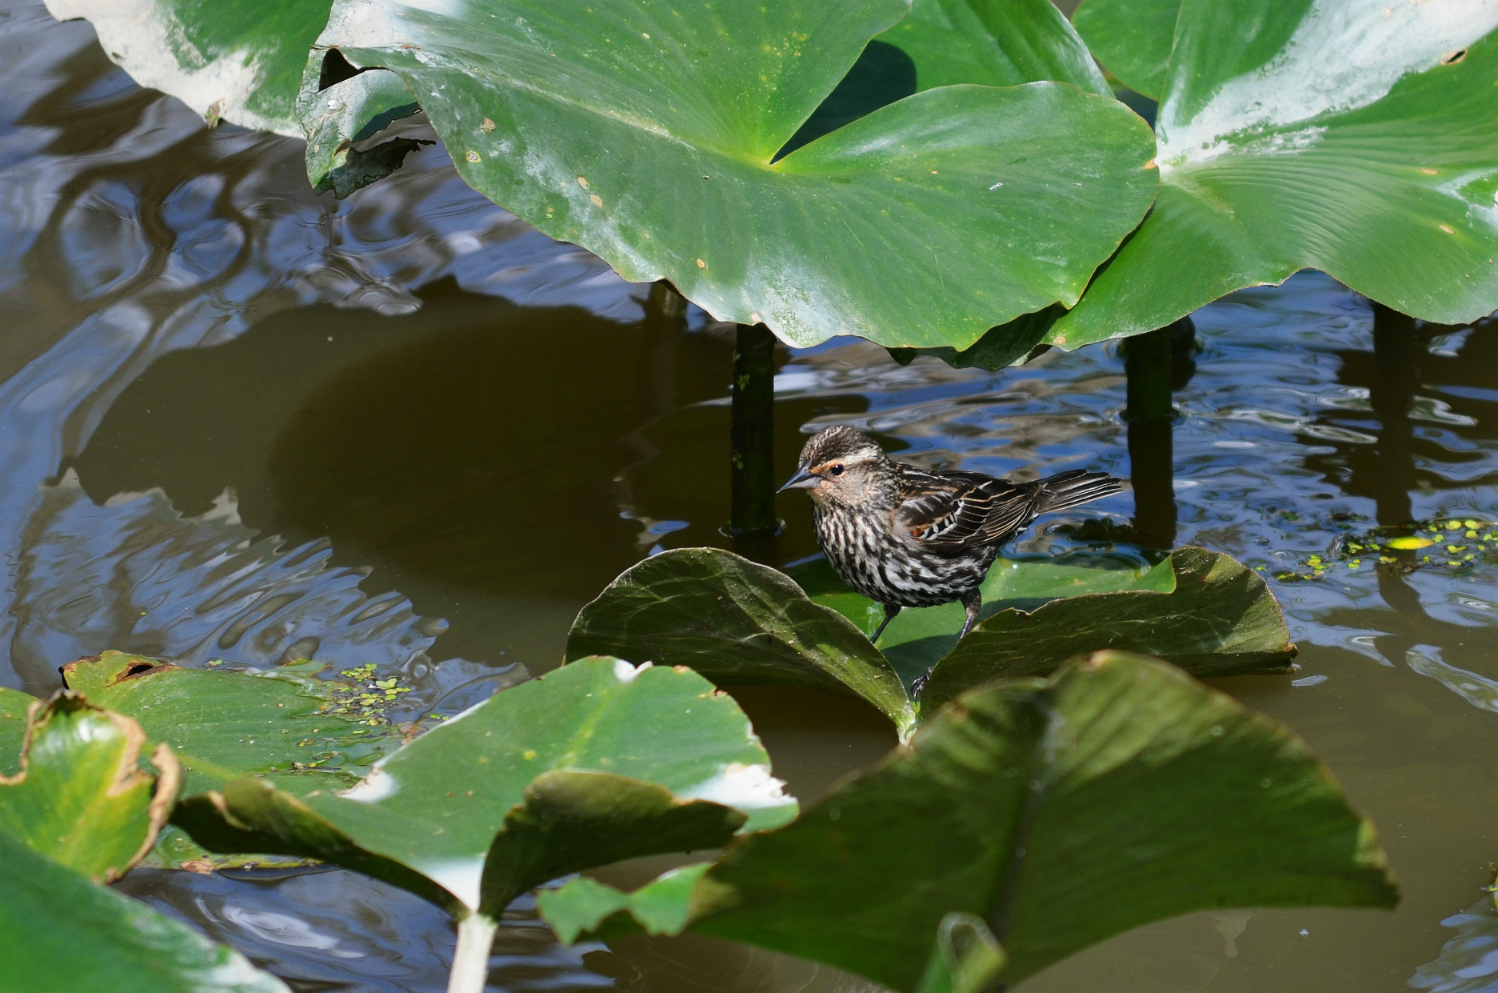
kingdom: Animalia
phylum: Chordata
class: Aves
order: Passeriformes
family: Icteridae
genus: Agelaius
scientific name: Agelaius phoeniceus
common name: Red-winged blackbird
